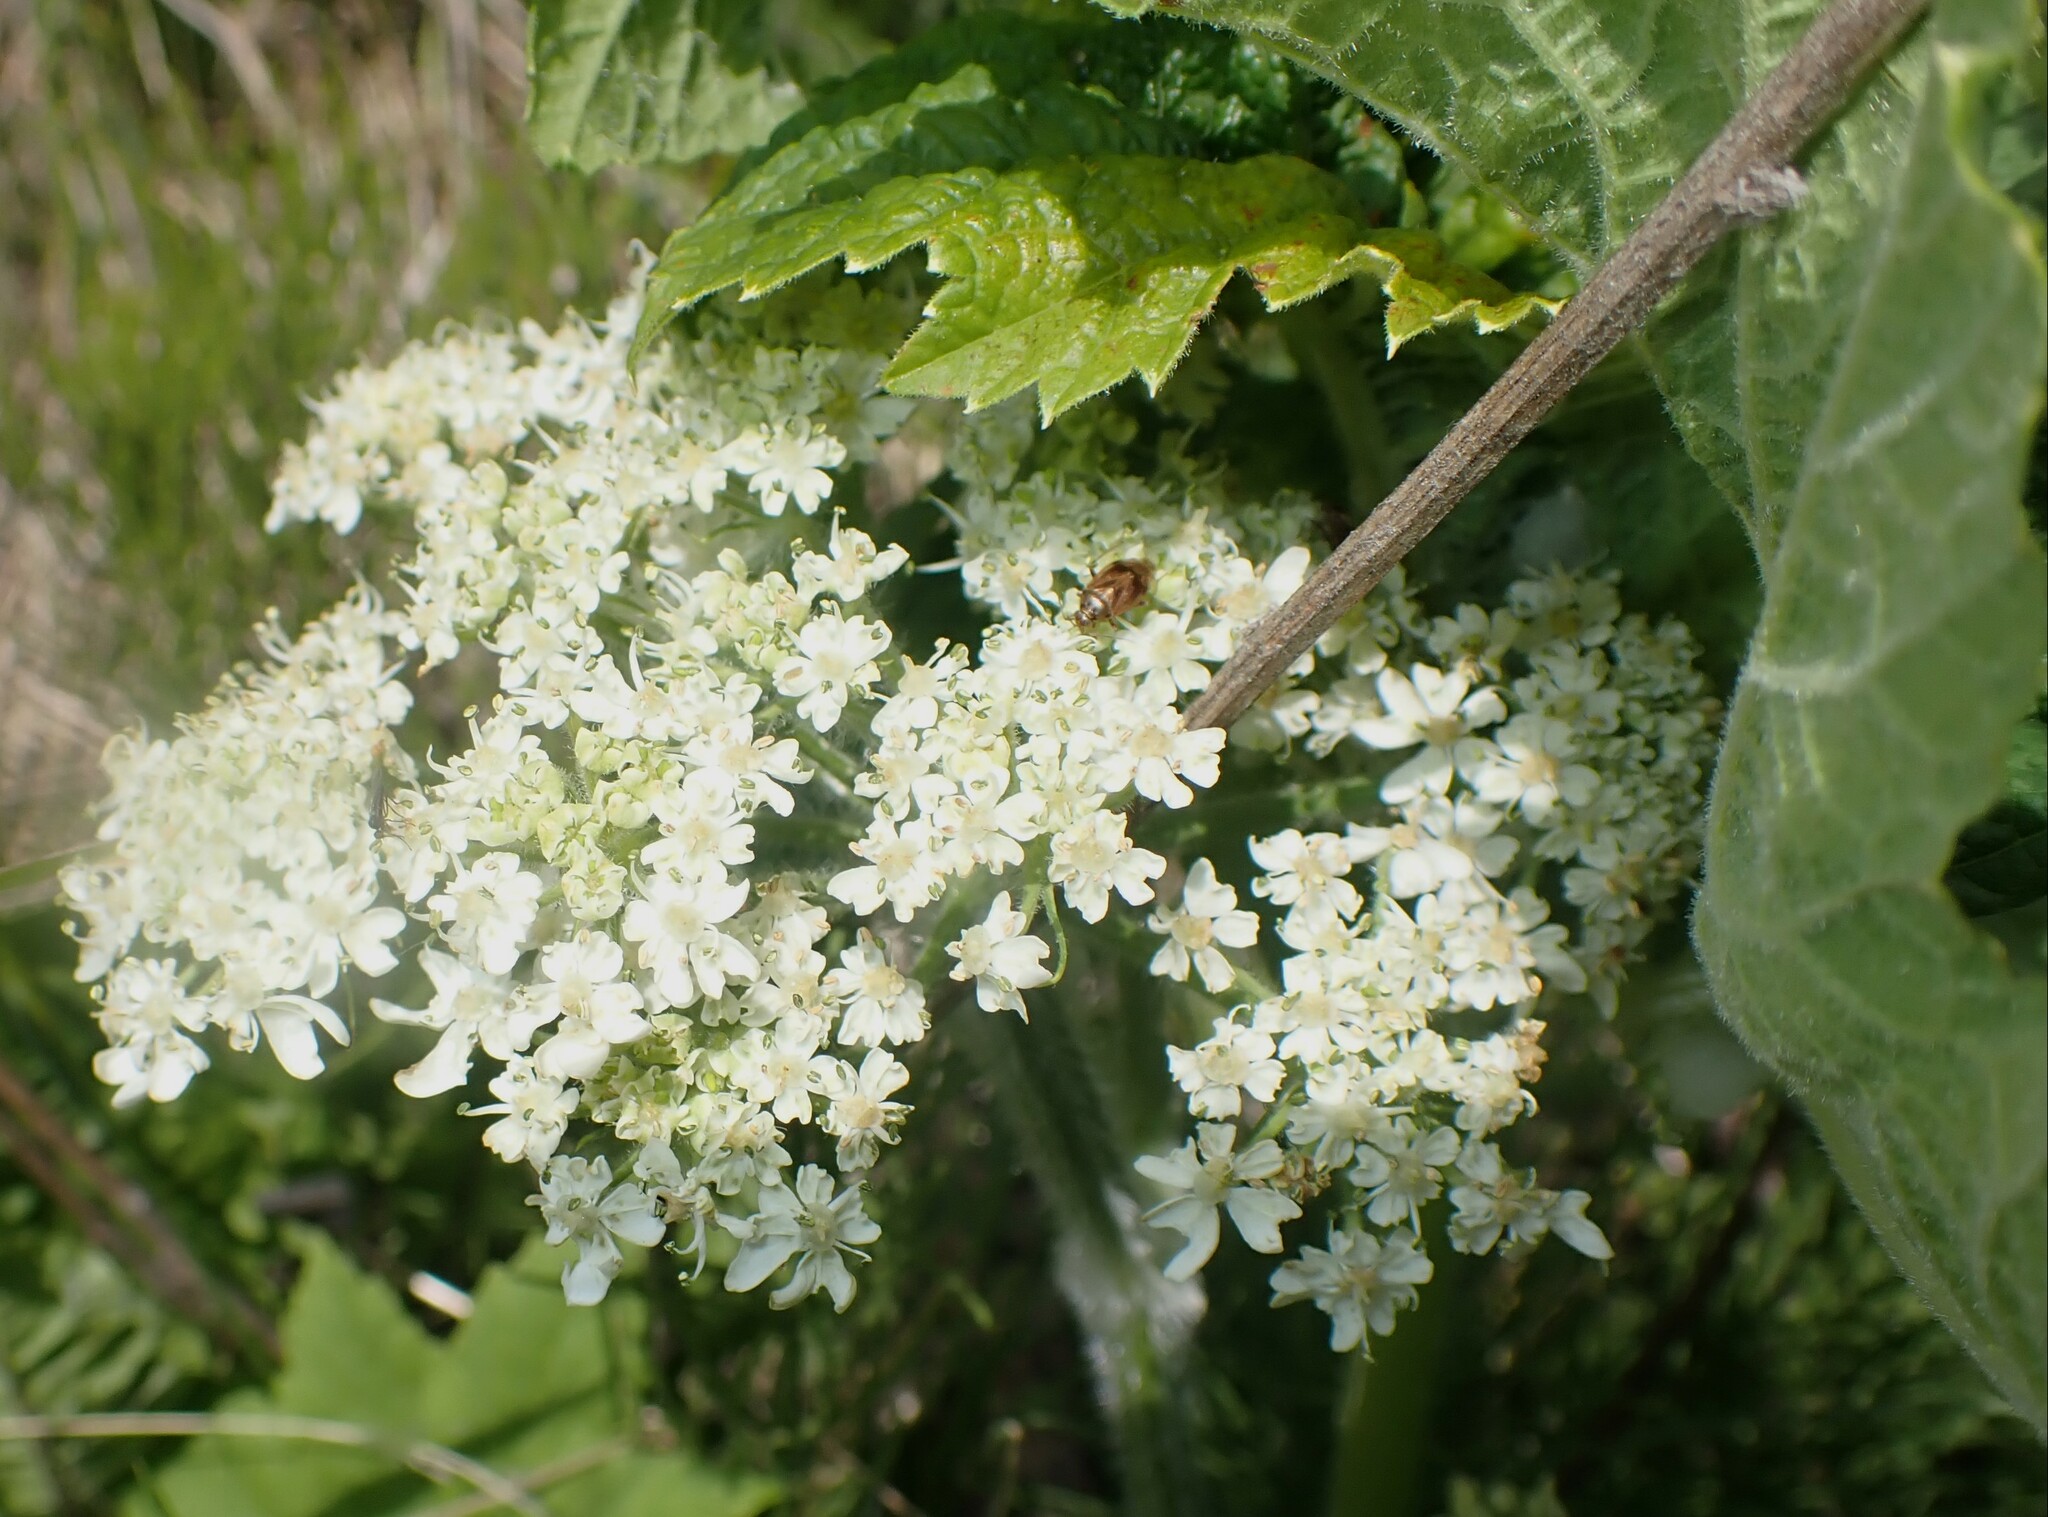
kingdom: Plantae
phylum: Tracheophyta
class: Magnoliopsida
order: Apiales
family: Apiaceae
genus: Heracleum
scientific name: Heracleum maximum
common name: American cow parsnip
